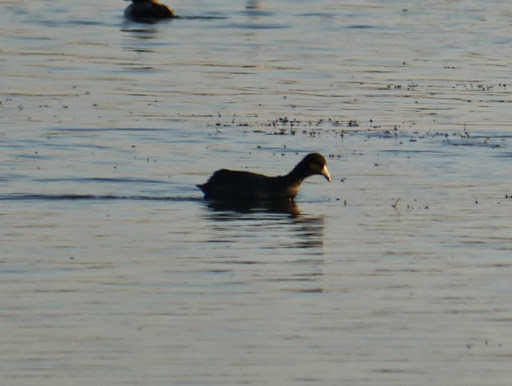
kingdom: Animalia
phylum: Chordata
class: Aves
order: Gruiformes
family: Rallidae
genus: Fulica
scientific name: Fulica americana
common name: American coot
